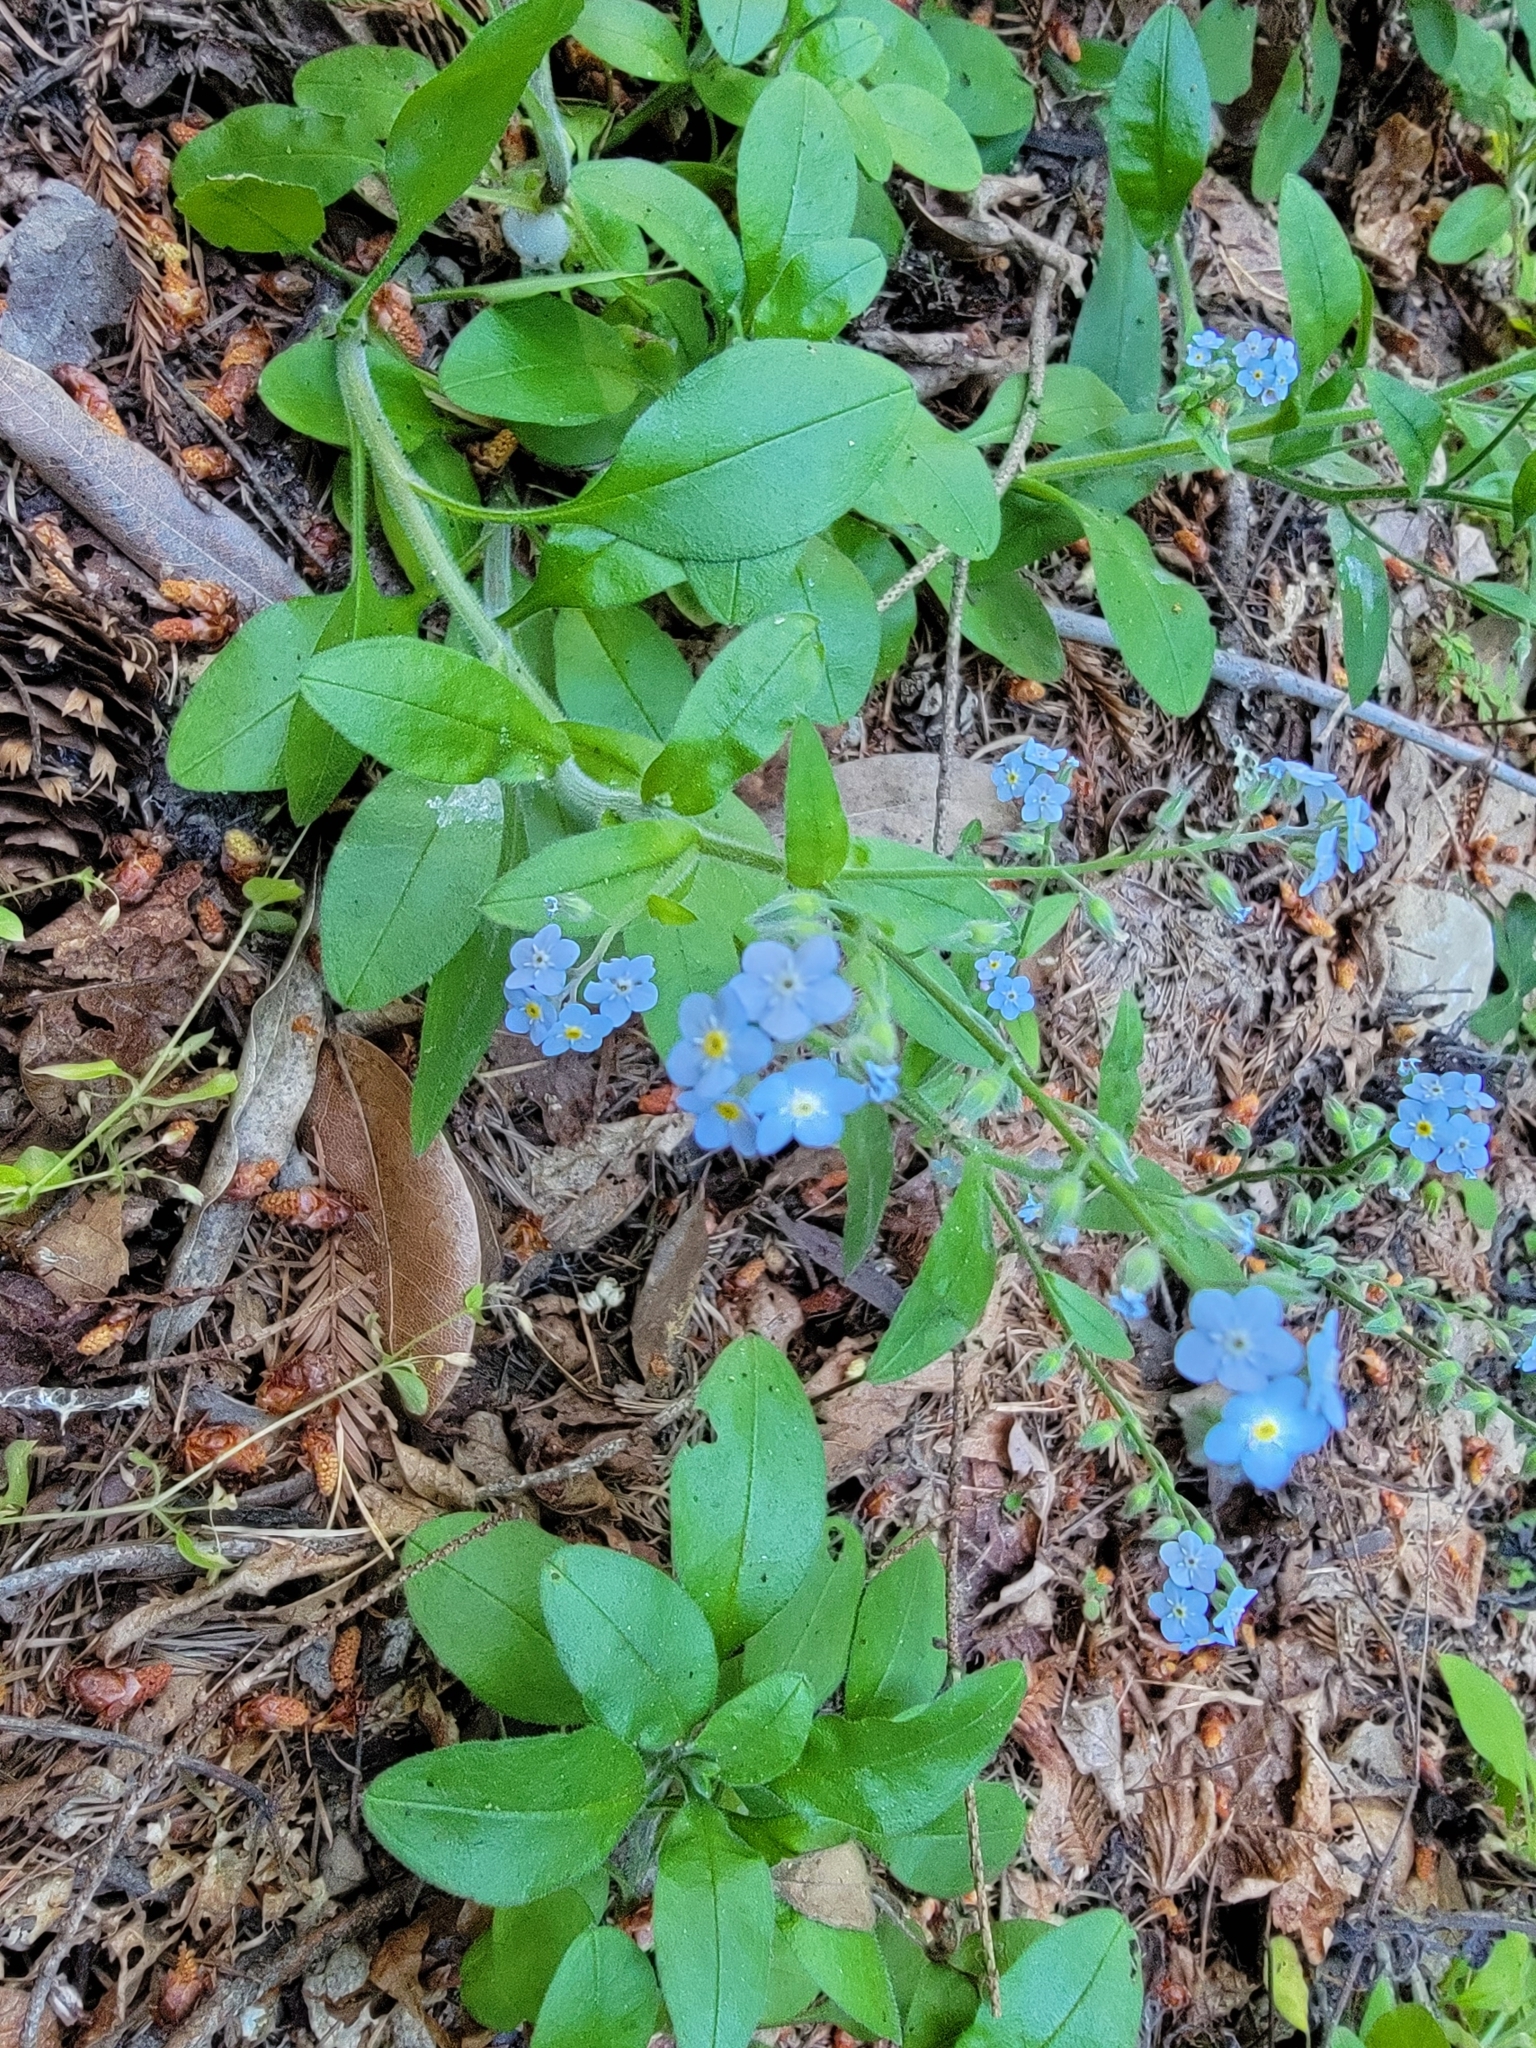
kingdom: Plantae
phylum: Tracheophyta
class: Magnoliopsida
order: Boraginales
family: Boraginaceae
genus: Myosotis
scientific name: Myosotis latifolia
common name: Broadleaf forget-me-not
